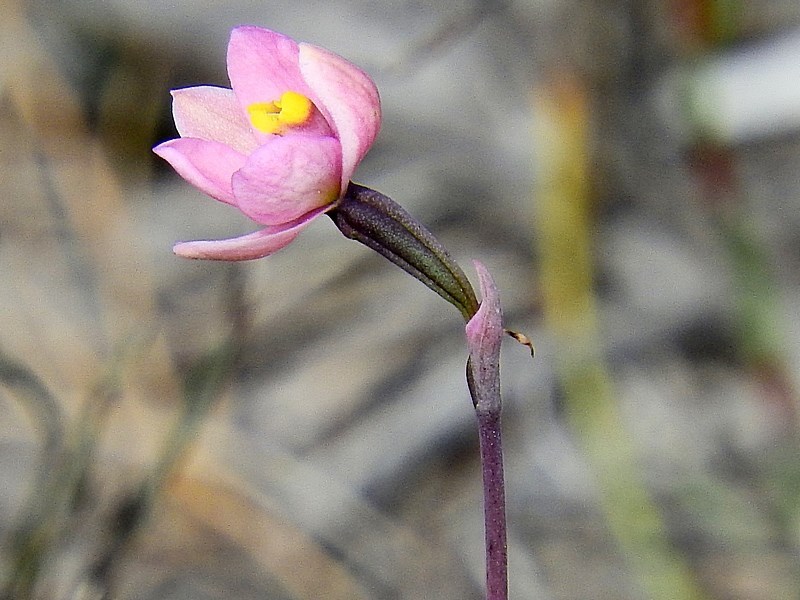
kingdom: Plantae
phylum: Tracheophyta
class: Liliopsida
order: Asparagales
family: Orchidaceae
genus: Thelymitra
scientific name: Thelymitra carnea
